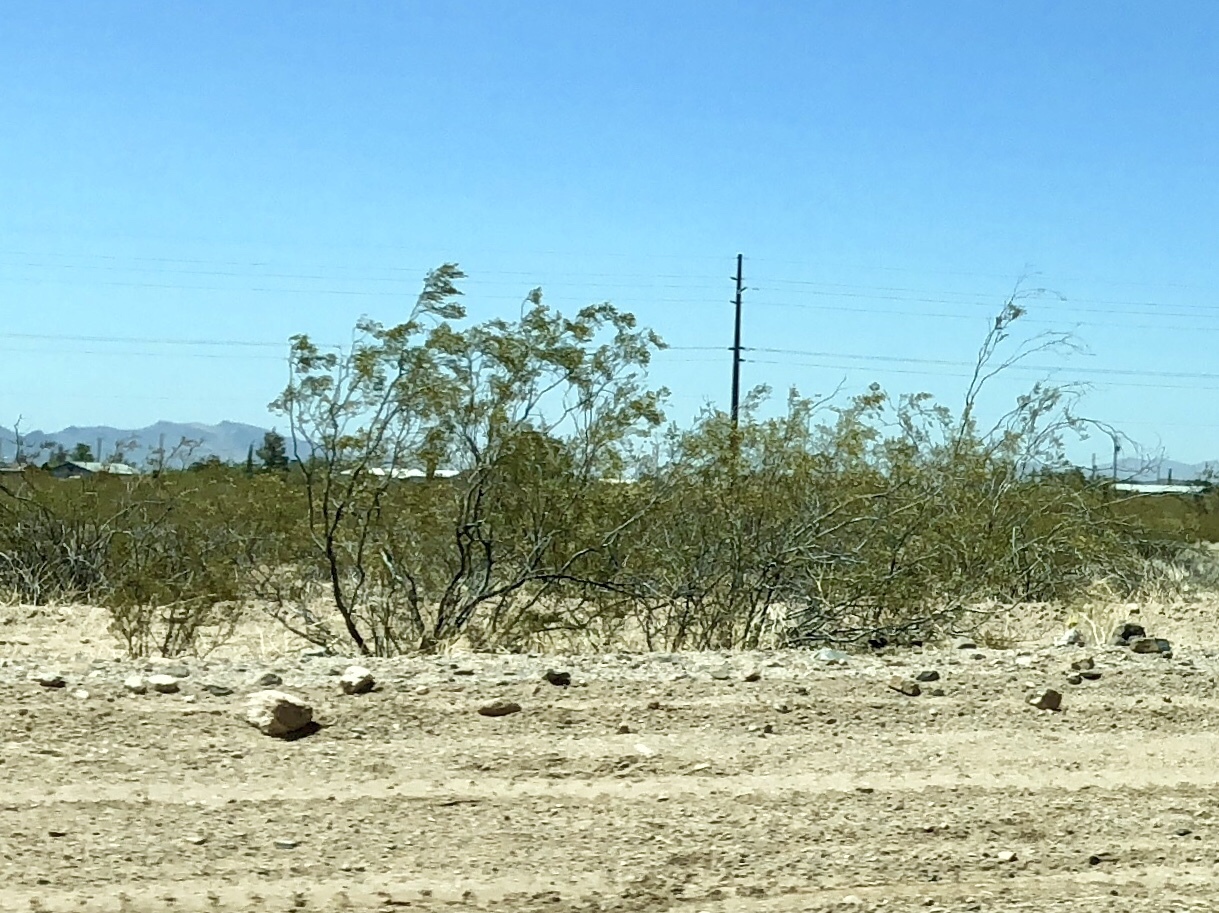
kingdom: Plantae
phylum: Tracheophyta
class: Magnoliopsida
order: Zygophyllales
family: Zygophyllaceae
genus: Larrea
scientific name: Larrea tridentata
